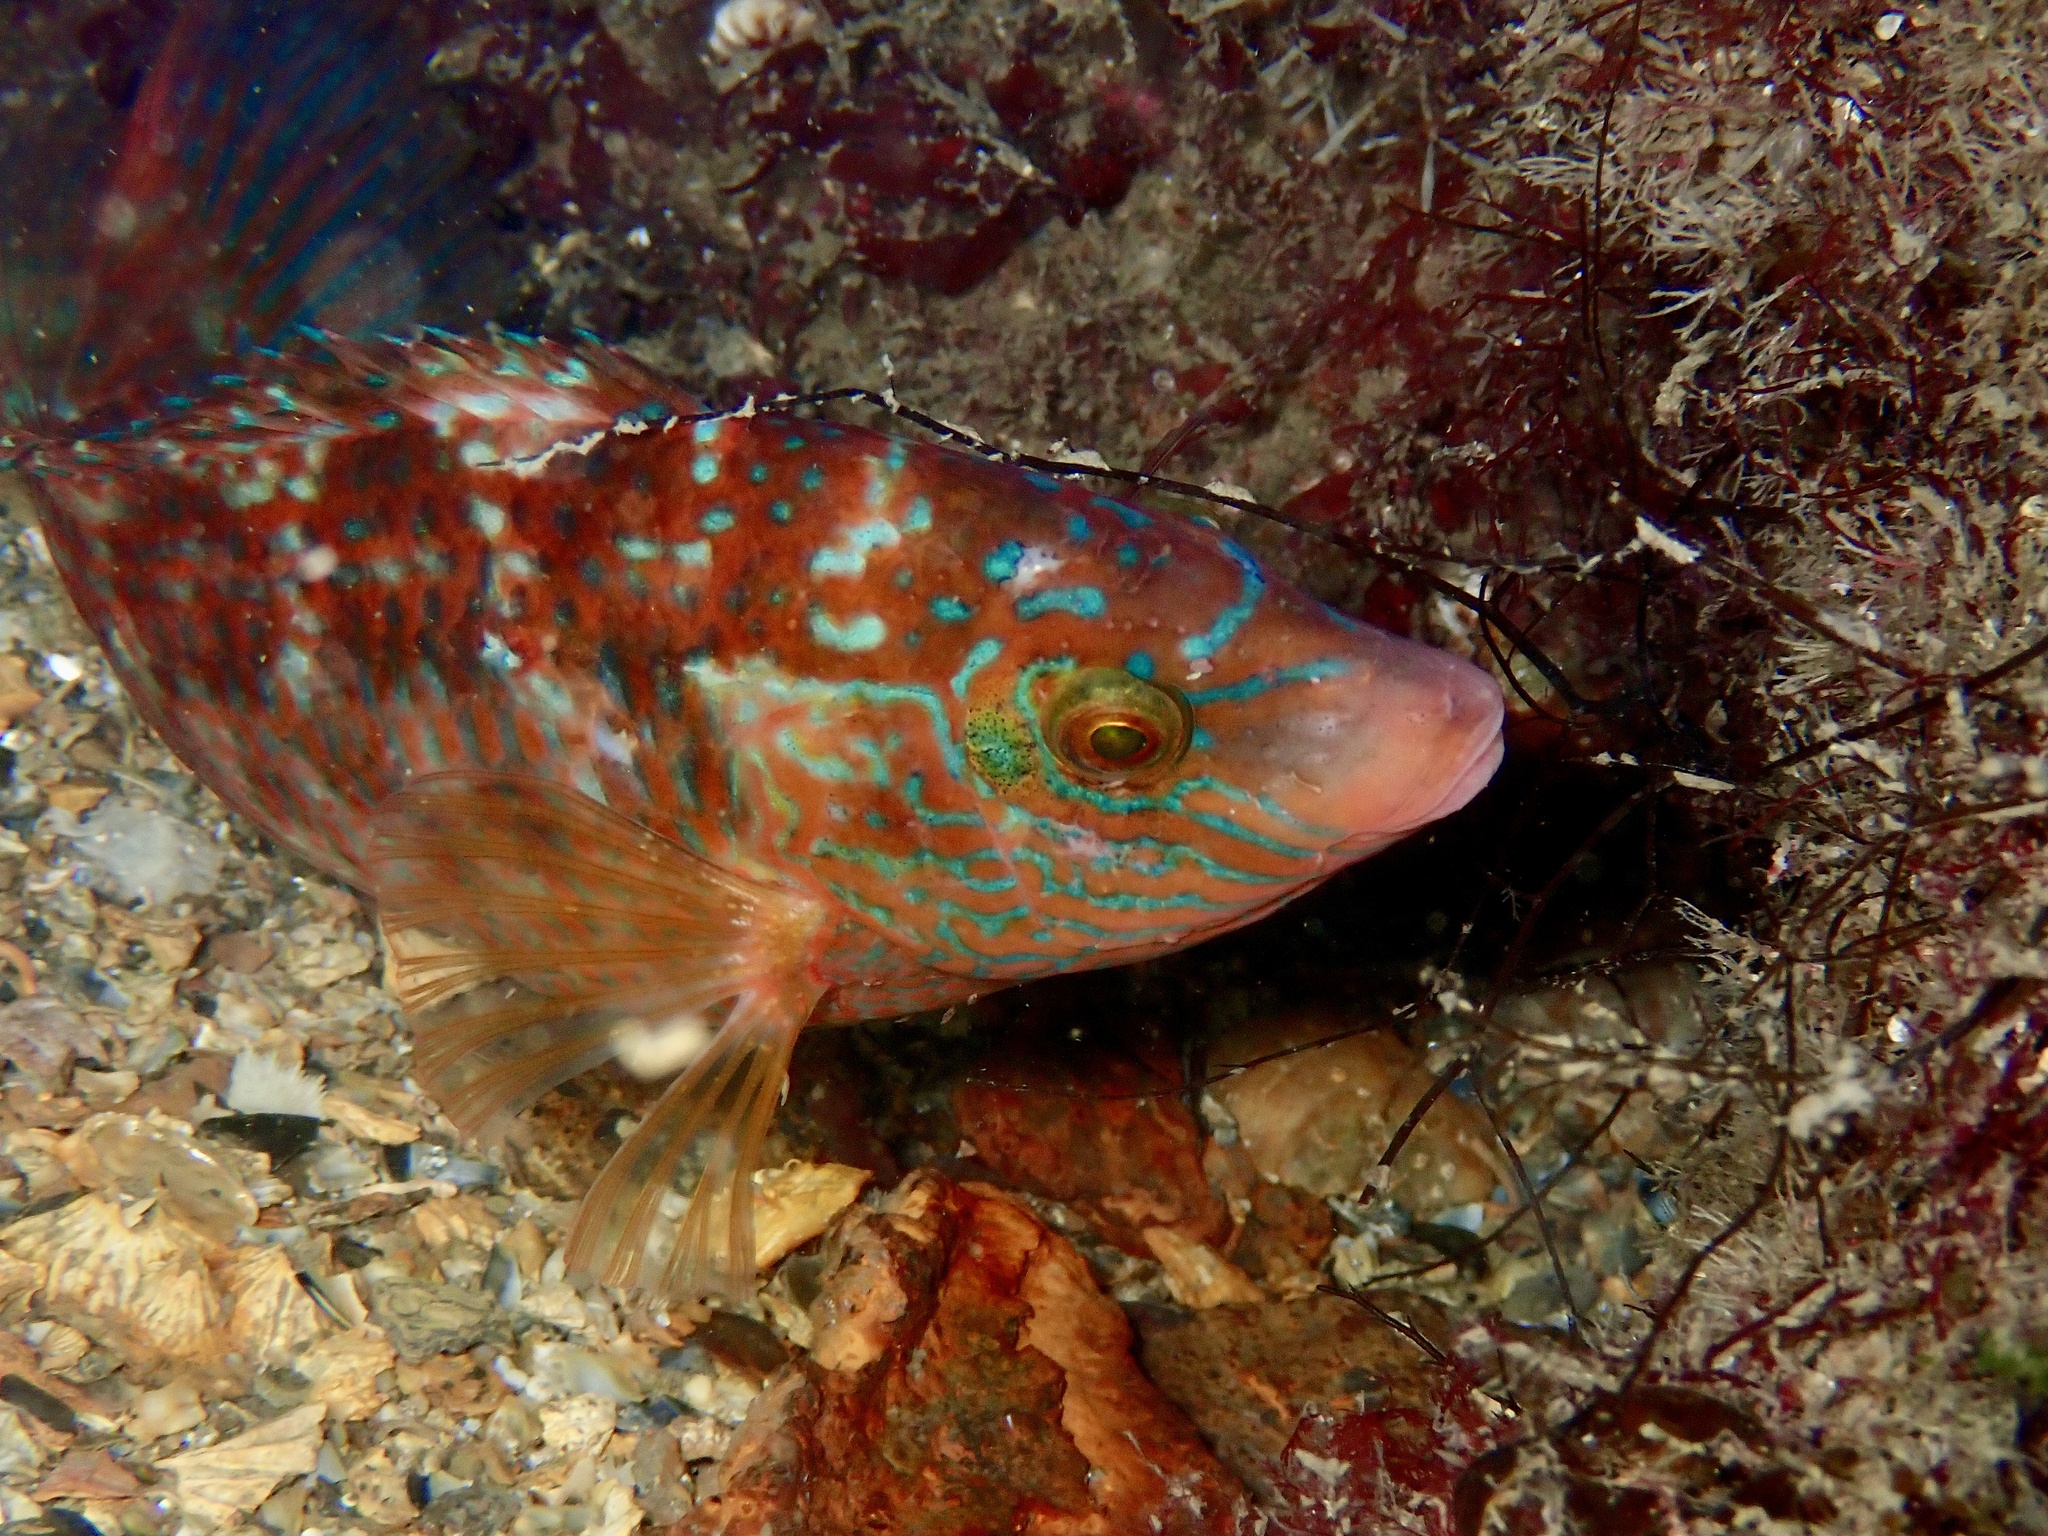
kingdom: Animalia
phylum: Chordata
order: Perciformes
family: Labridae
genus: Symphodus
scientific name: Symphodus melops
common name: Corkwing
